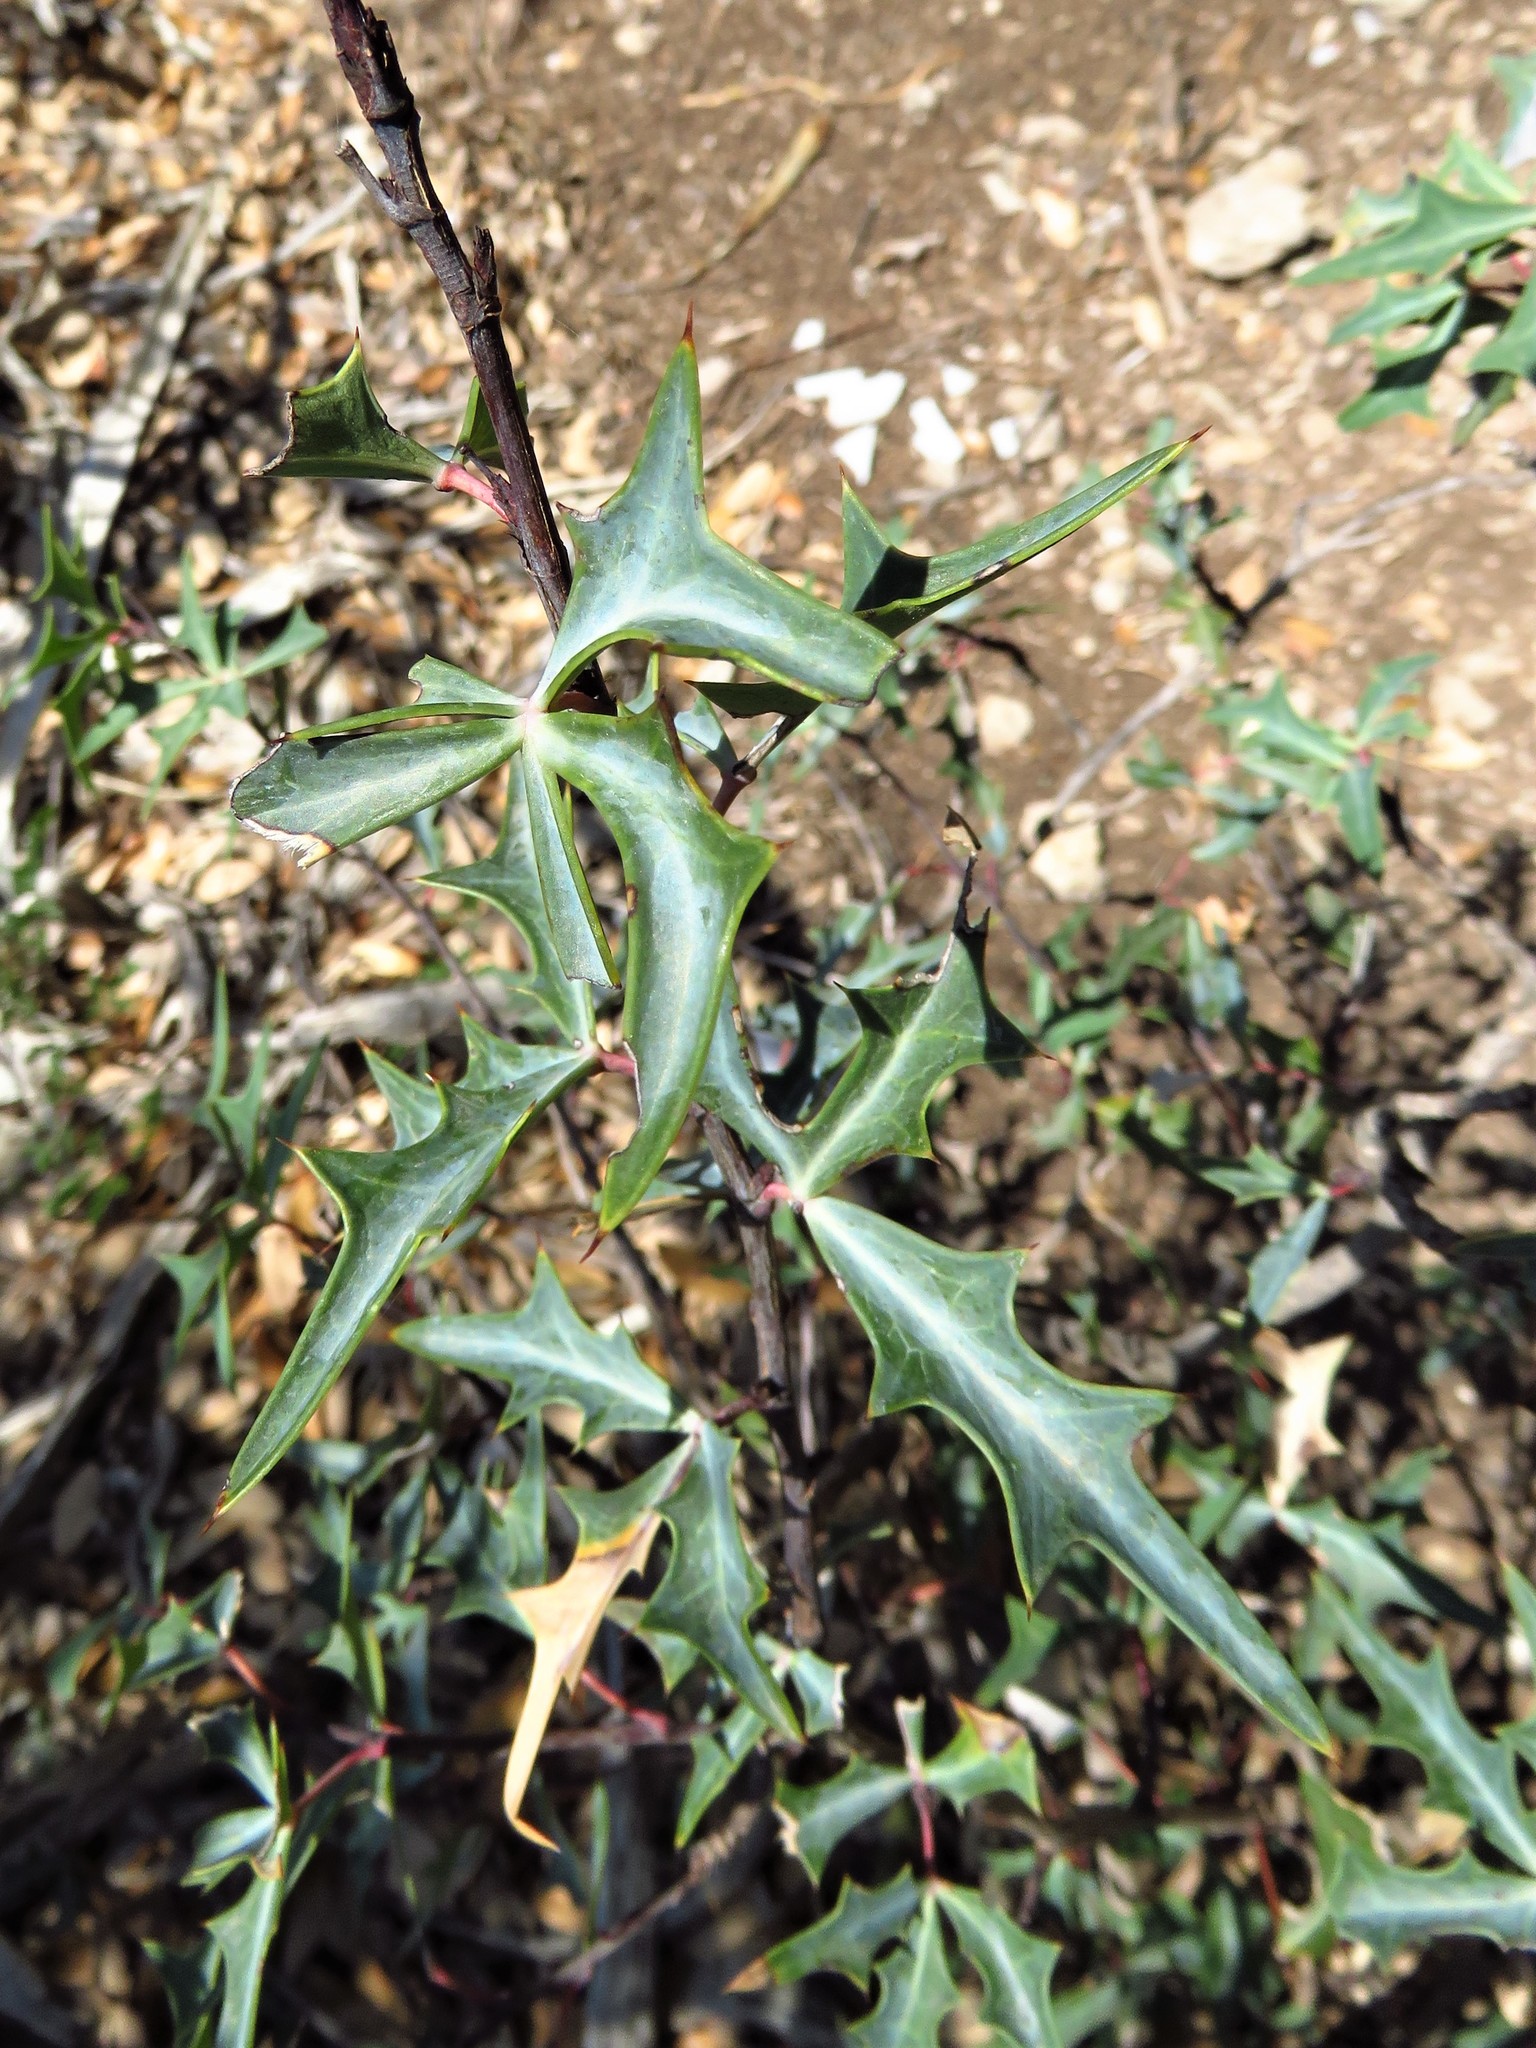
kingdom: Plantae
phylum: Tracheophyta
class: Magnoliopsida
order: Ranunculales
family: Berberidaceae
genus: Alloberberis
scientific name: Alloberberis trifoliolata
